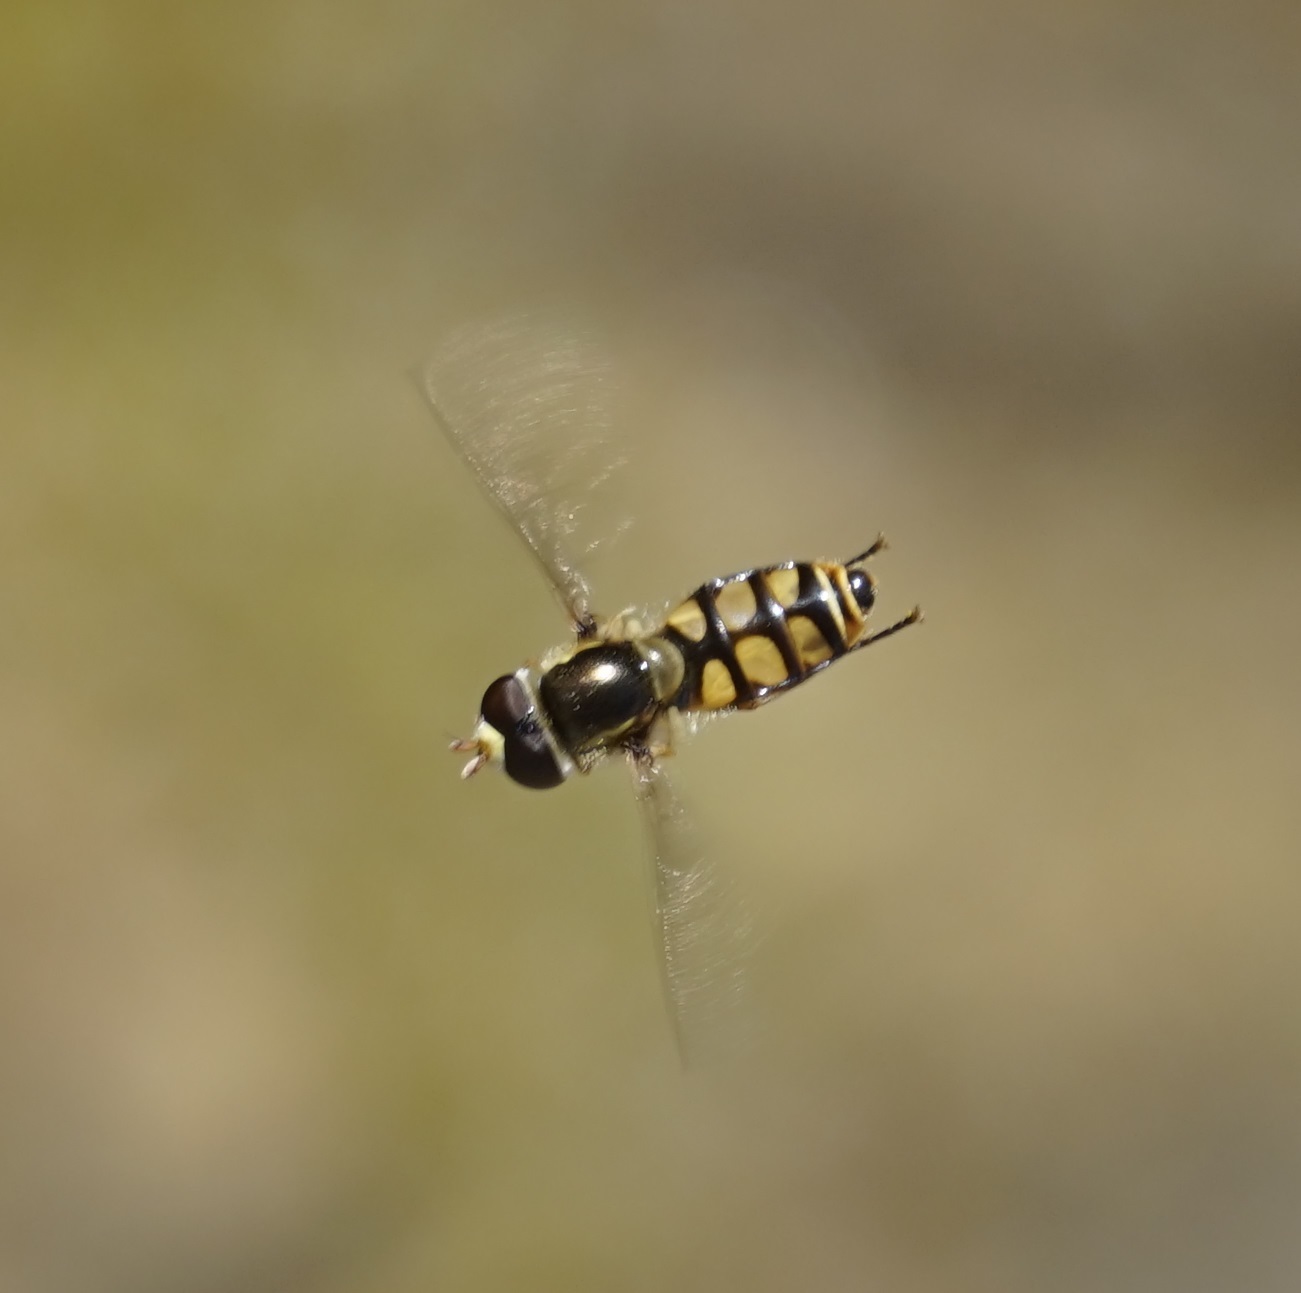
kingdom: Animalia
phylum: Arthropoda
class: Insecta
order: Diptera
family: Syrphidae
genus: Simosyrphus
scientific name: Simosyrphus grandicornis
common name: Hoverfly
